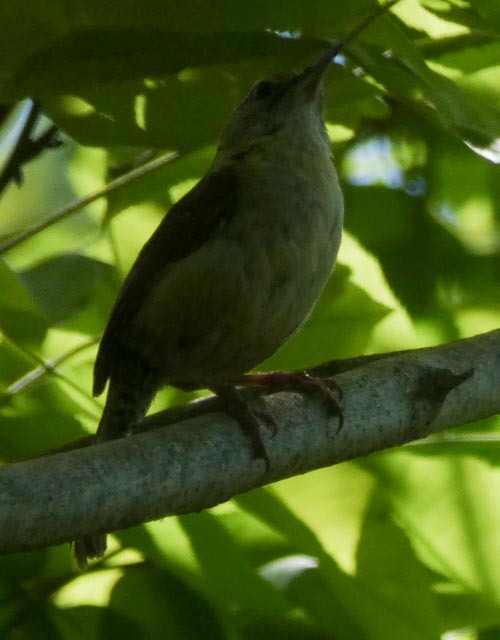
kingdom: Animalia
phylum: Chordata
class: Aves
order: Passeriformes
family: Troglodytidae
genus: Thryothorus
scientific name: Thryothorus ludovicianus
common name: Carolina wren
